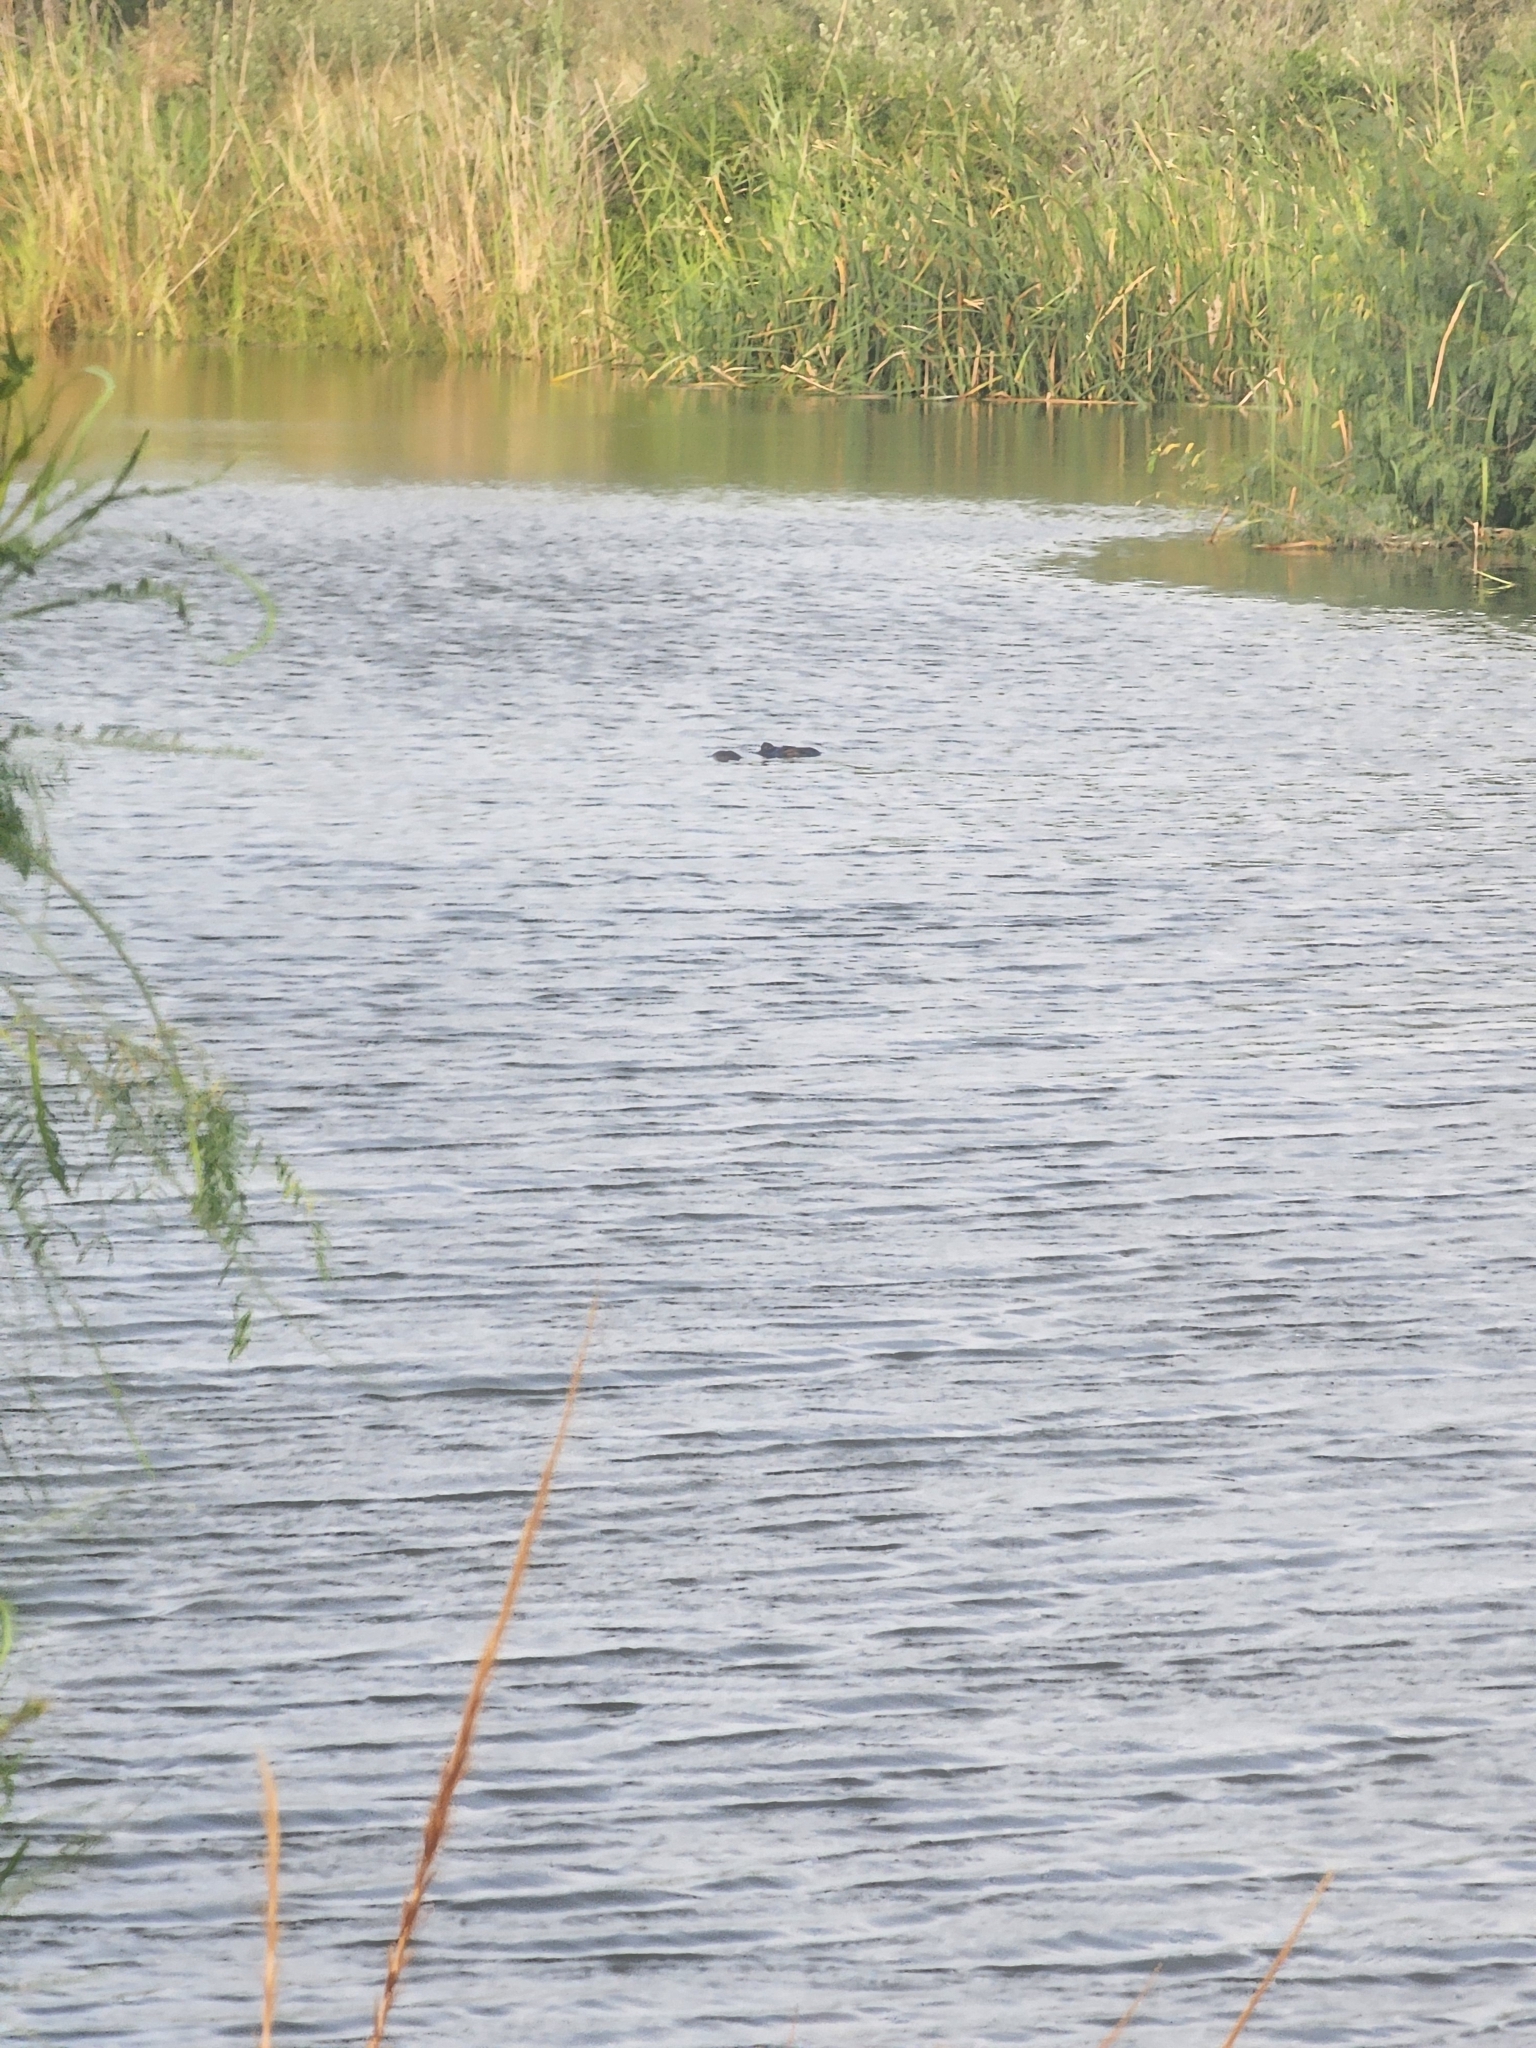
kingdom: Animalia
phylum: Chordata
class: Crocodylia
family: Alligatoridae
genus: Alligator
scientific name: Alligator mississippiensis
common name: American alligator
